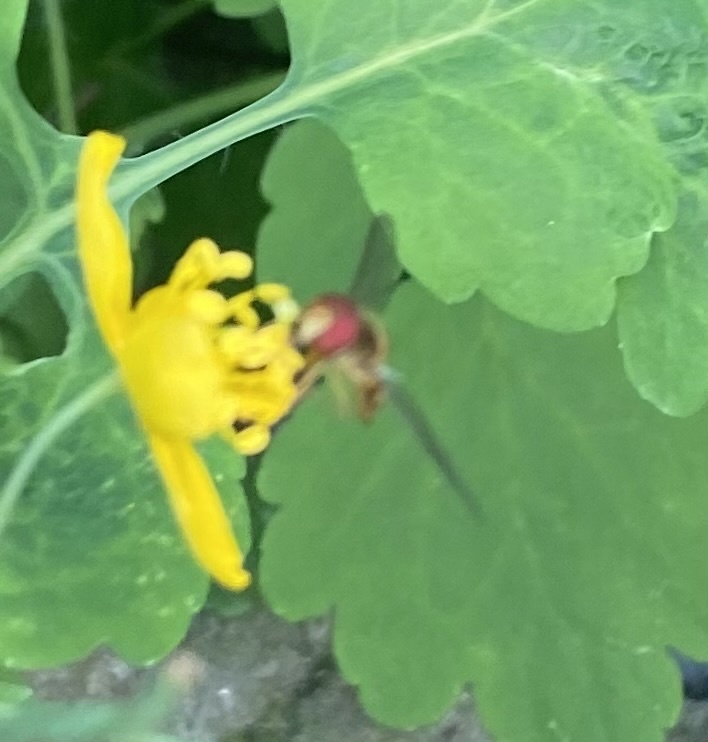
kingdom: Animalia
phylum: Arthropoda
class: Insecta
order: Diptera
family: Syrphidae
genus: Episyrphus
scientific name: Episyrphus balteatus
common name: Marmalade hoverfly
